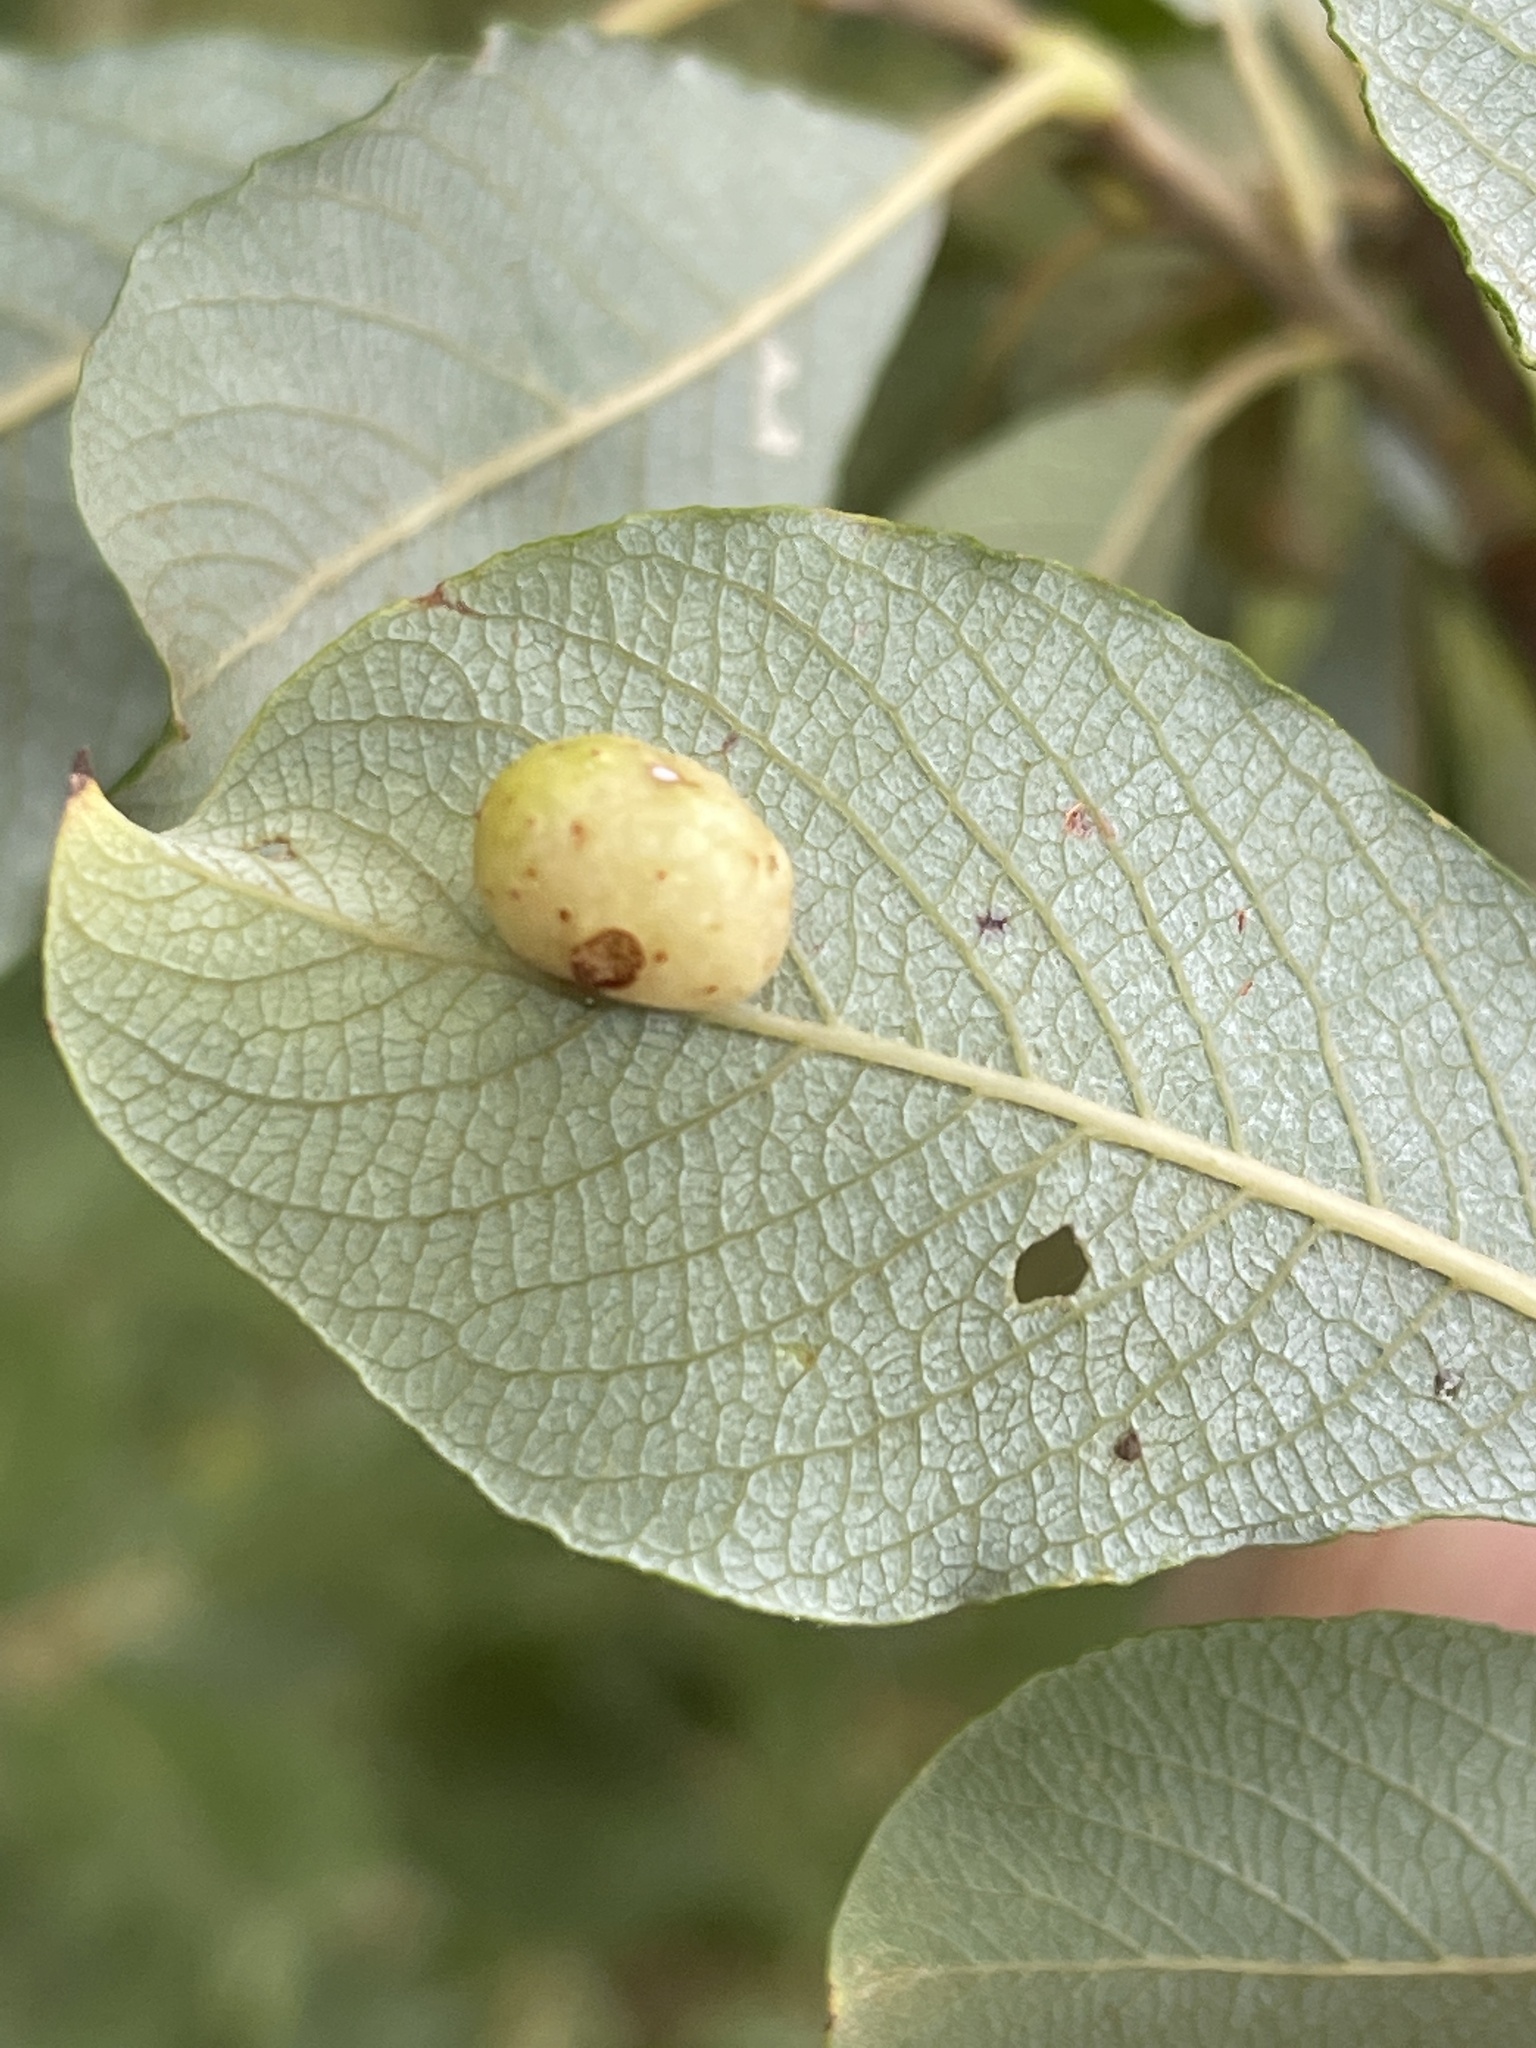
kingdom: Animalia
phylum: Arthropoda
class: Insecta
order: Hymenoptera
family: Tenthredinidae
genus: Pontania
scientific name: Pontania pedunculi
